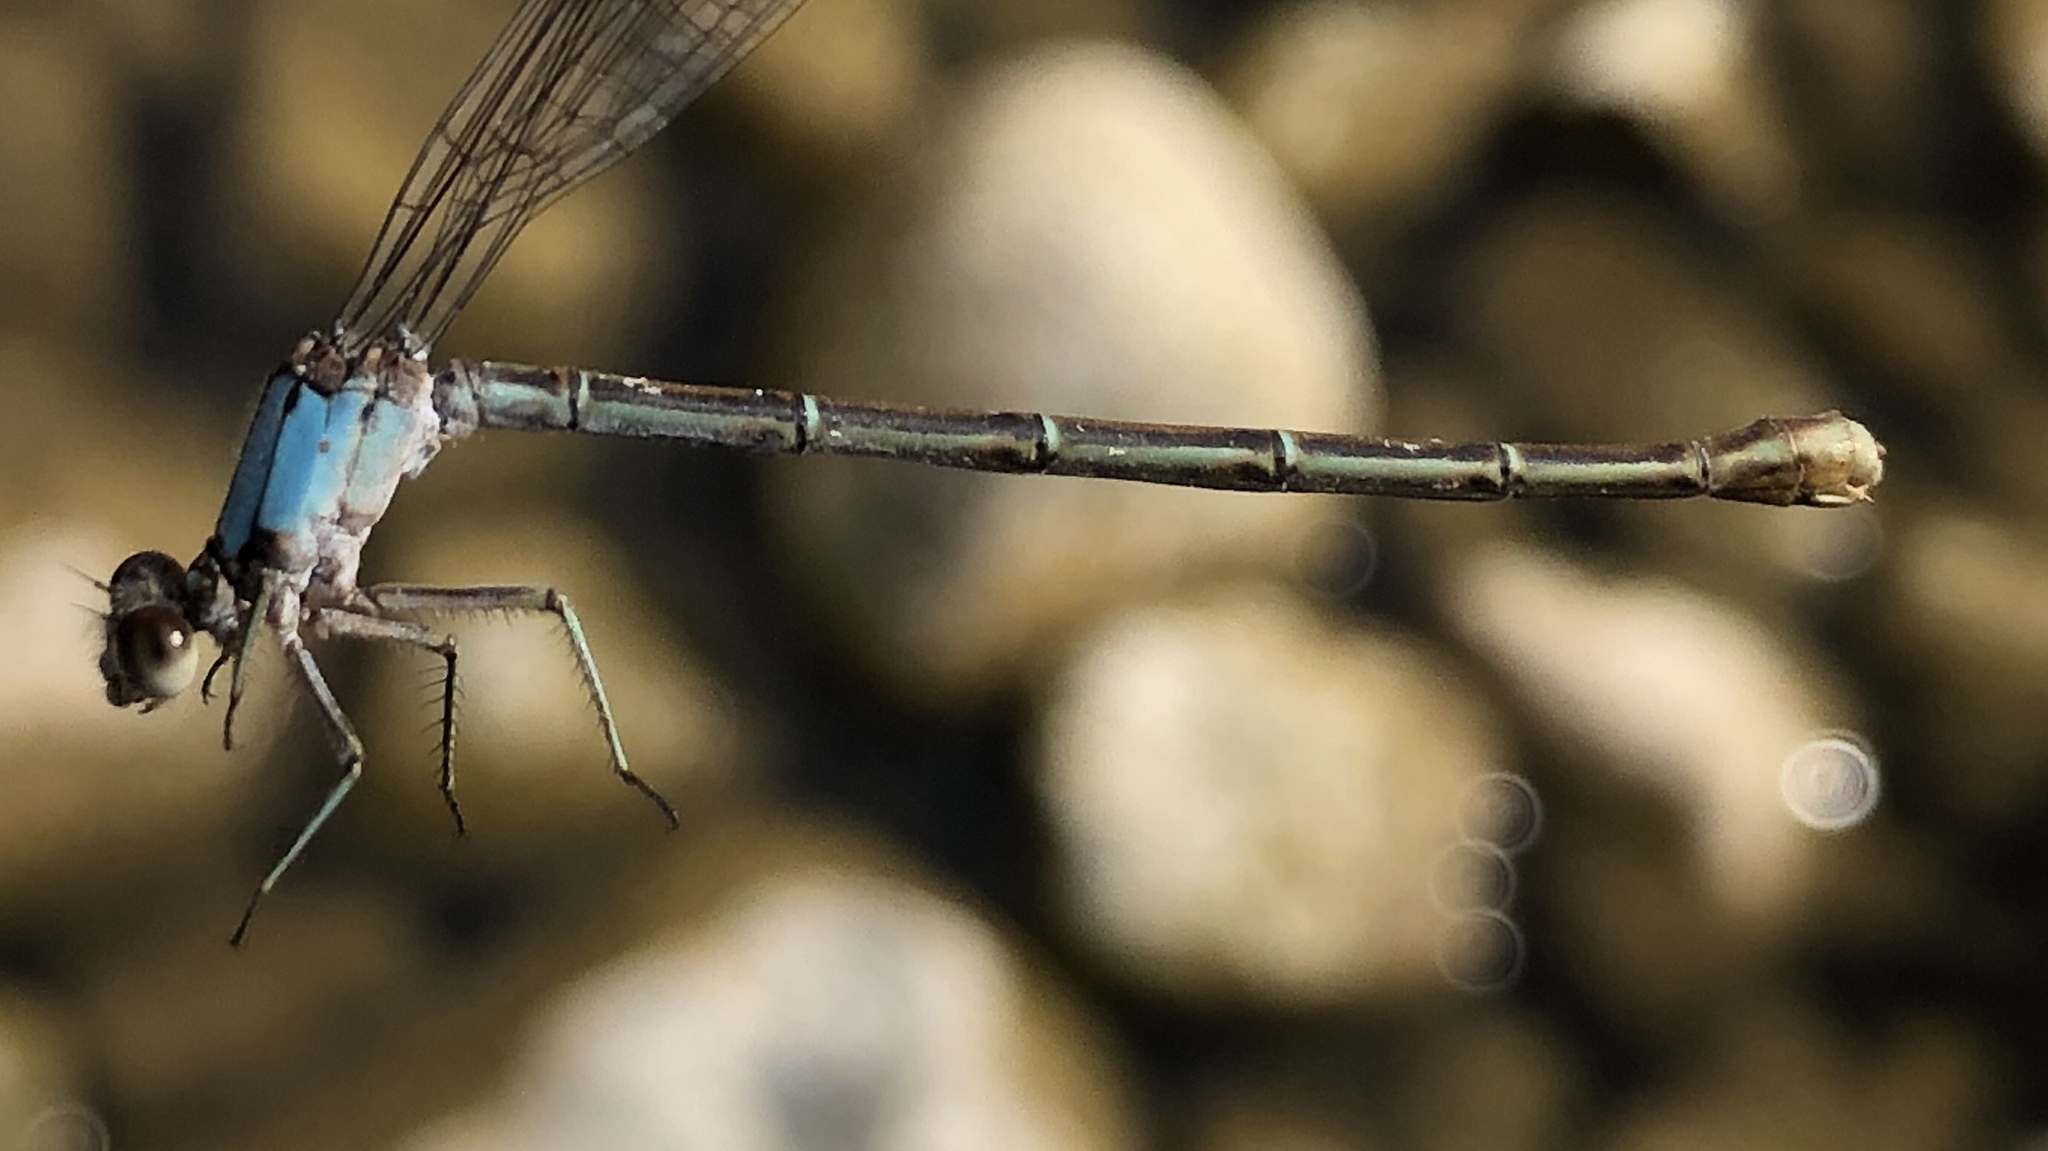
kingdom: Animalia
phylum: Arthropoda
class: Insecta
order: Odonata
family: Coenagrionidae
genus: Argia
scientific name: Argia moesta
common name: Powdered dancer
